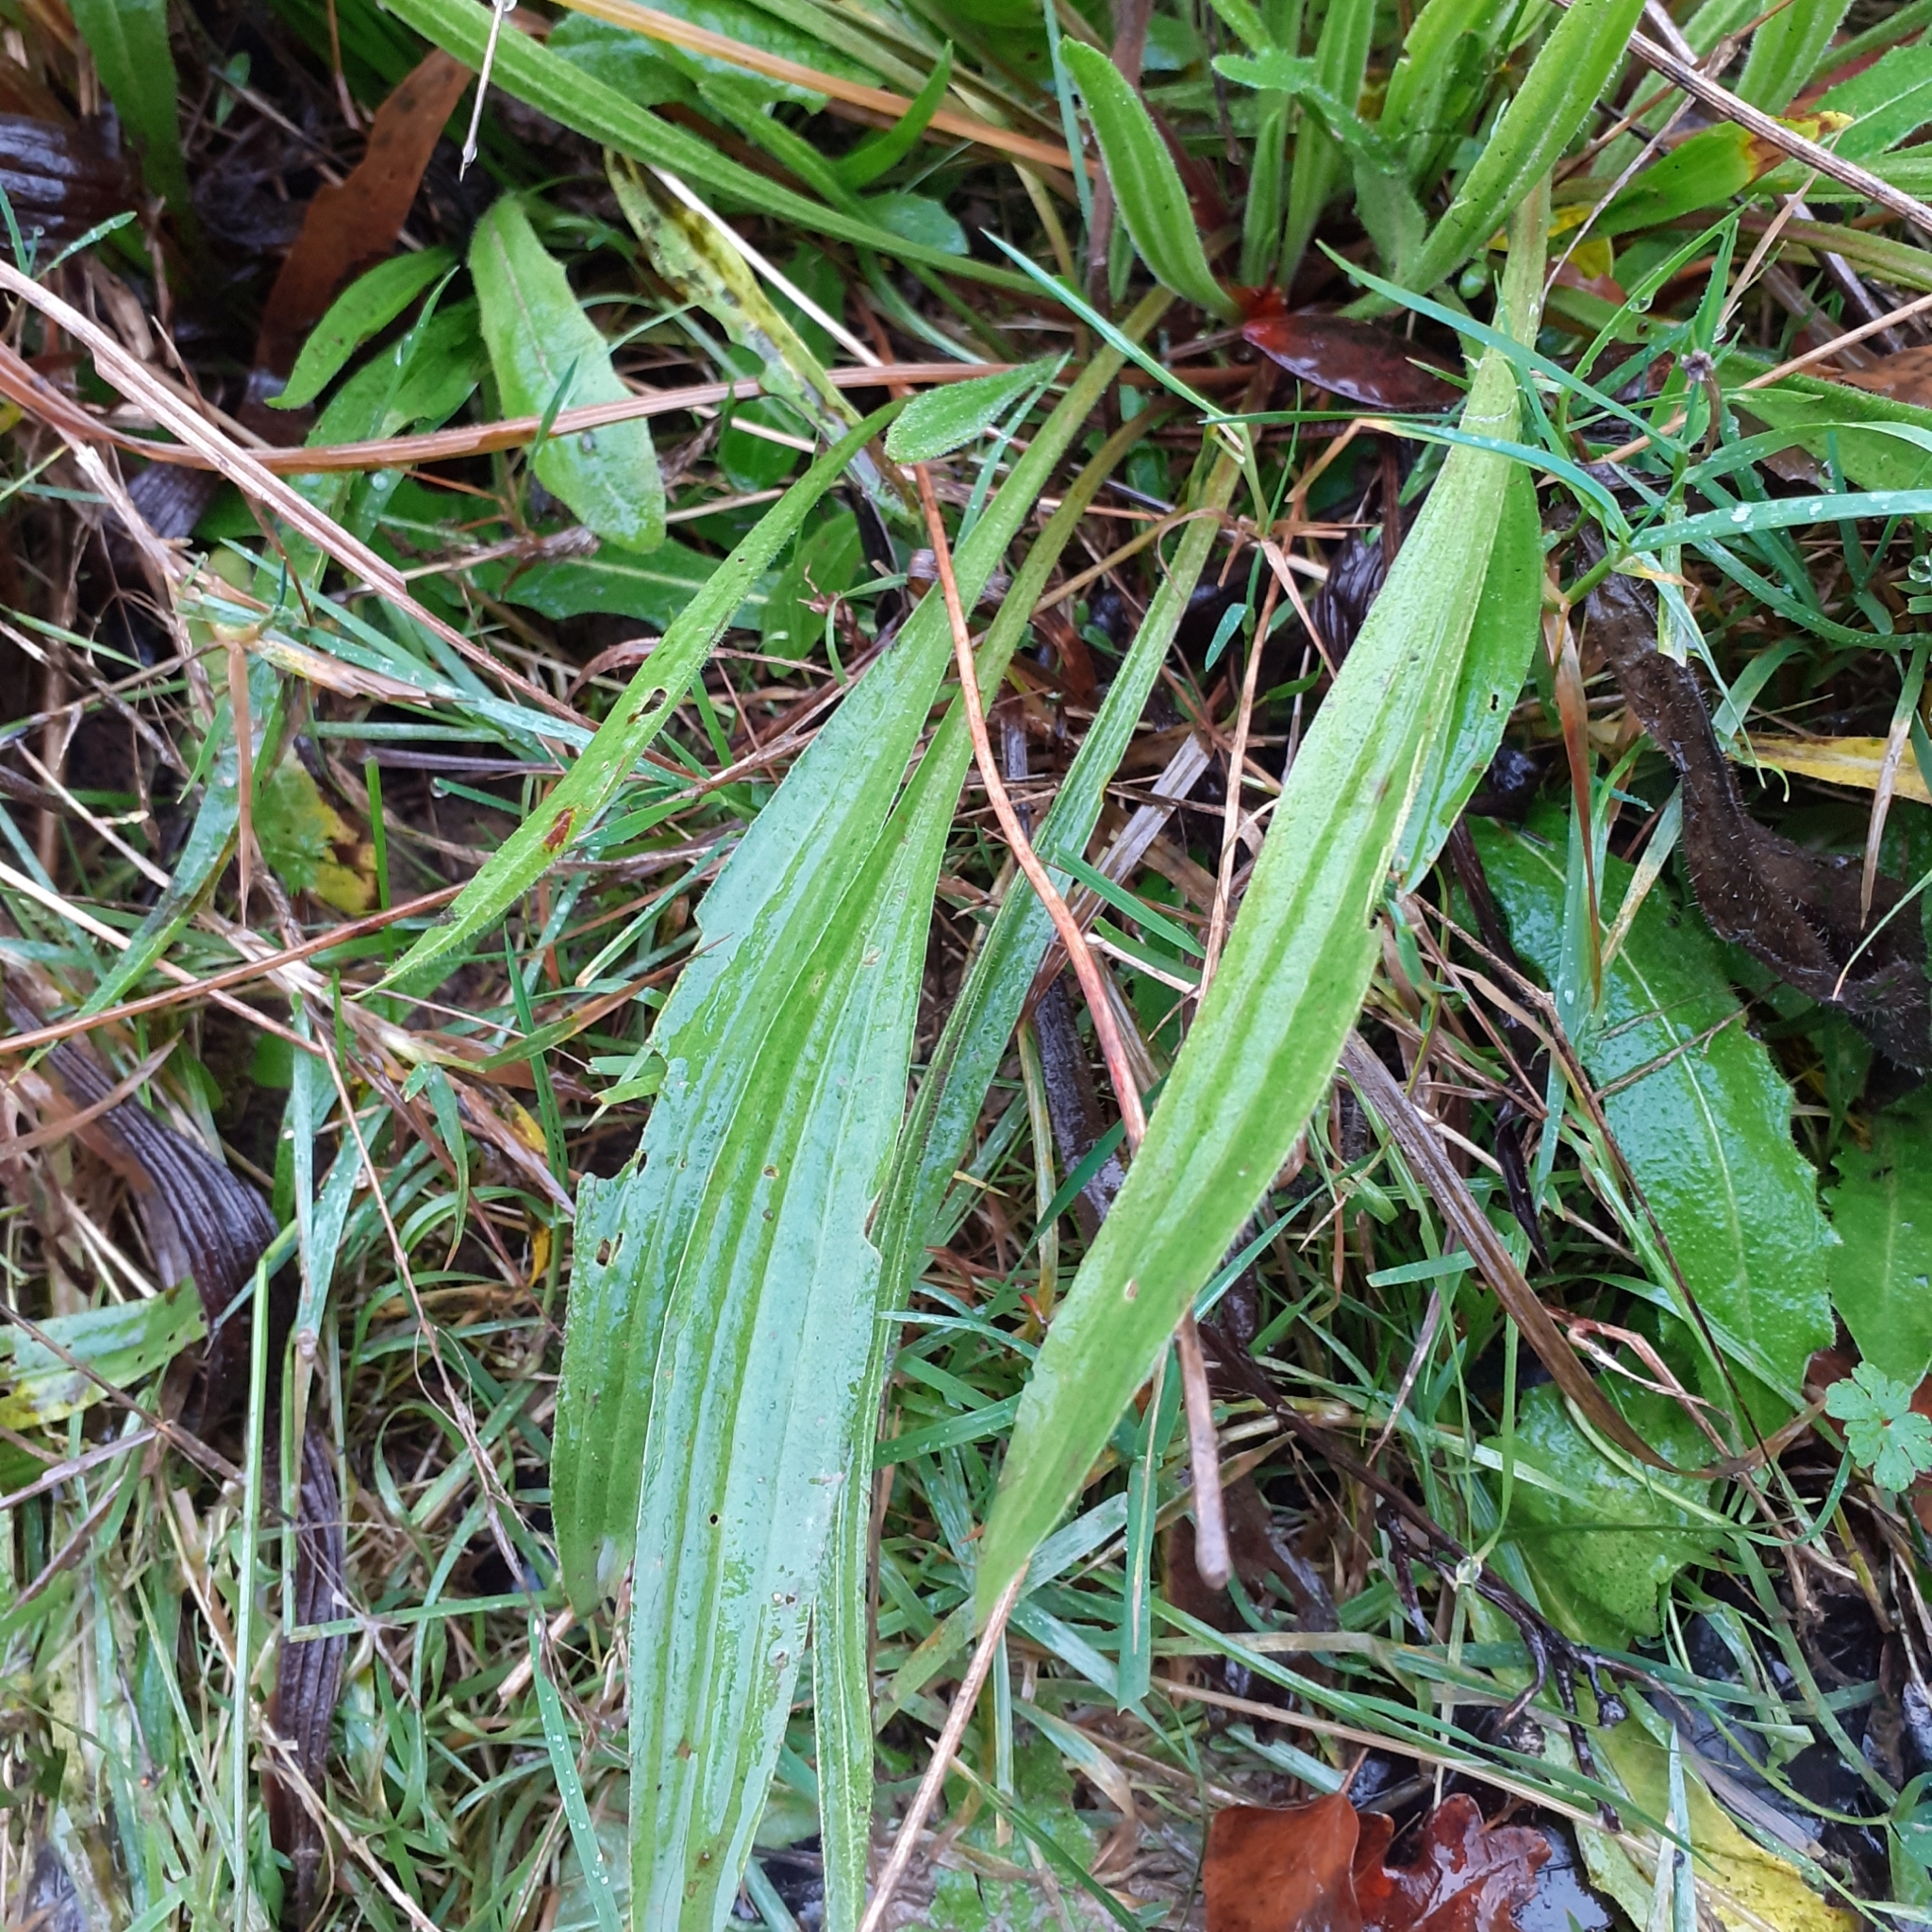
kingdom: Plantae
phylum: Tracheophyta
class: Magnoliopsida
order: Lamiales
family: Plantaginaceae
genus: Plantago
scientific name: Plantago lanceolata
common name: Ribwort plantain
